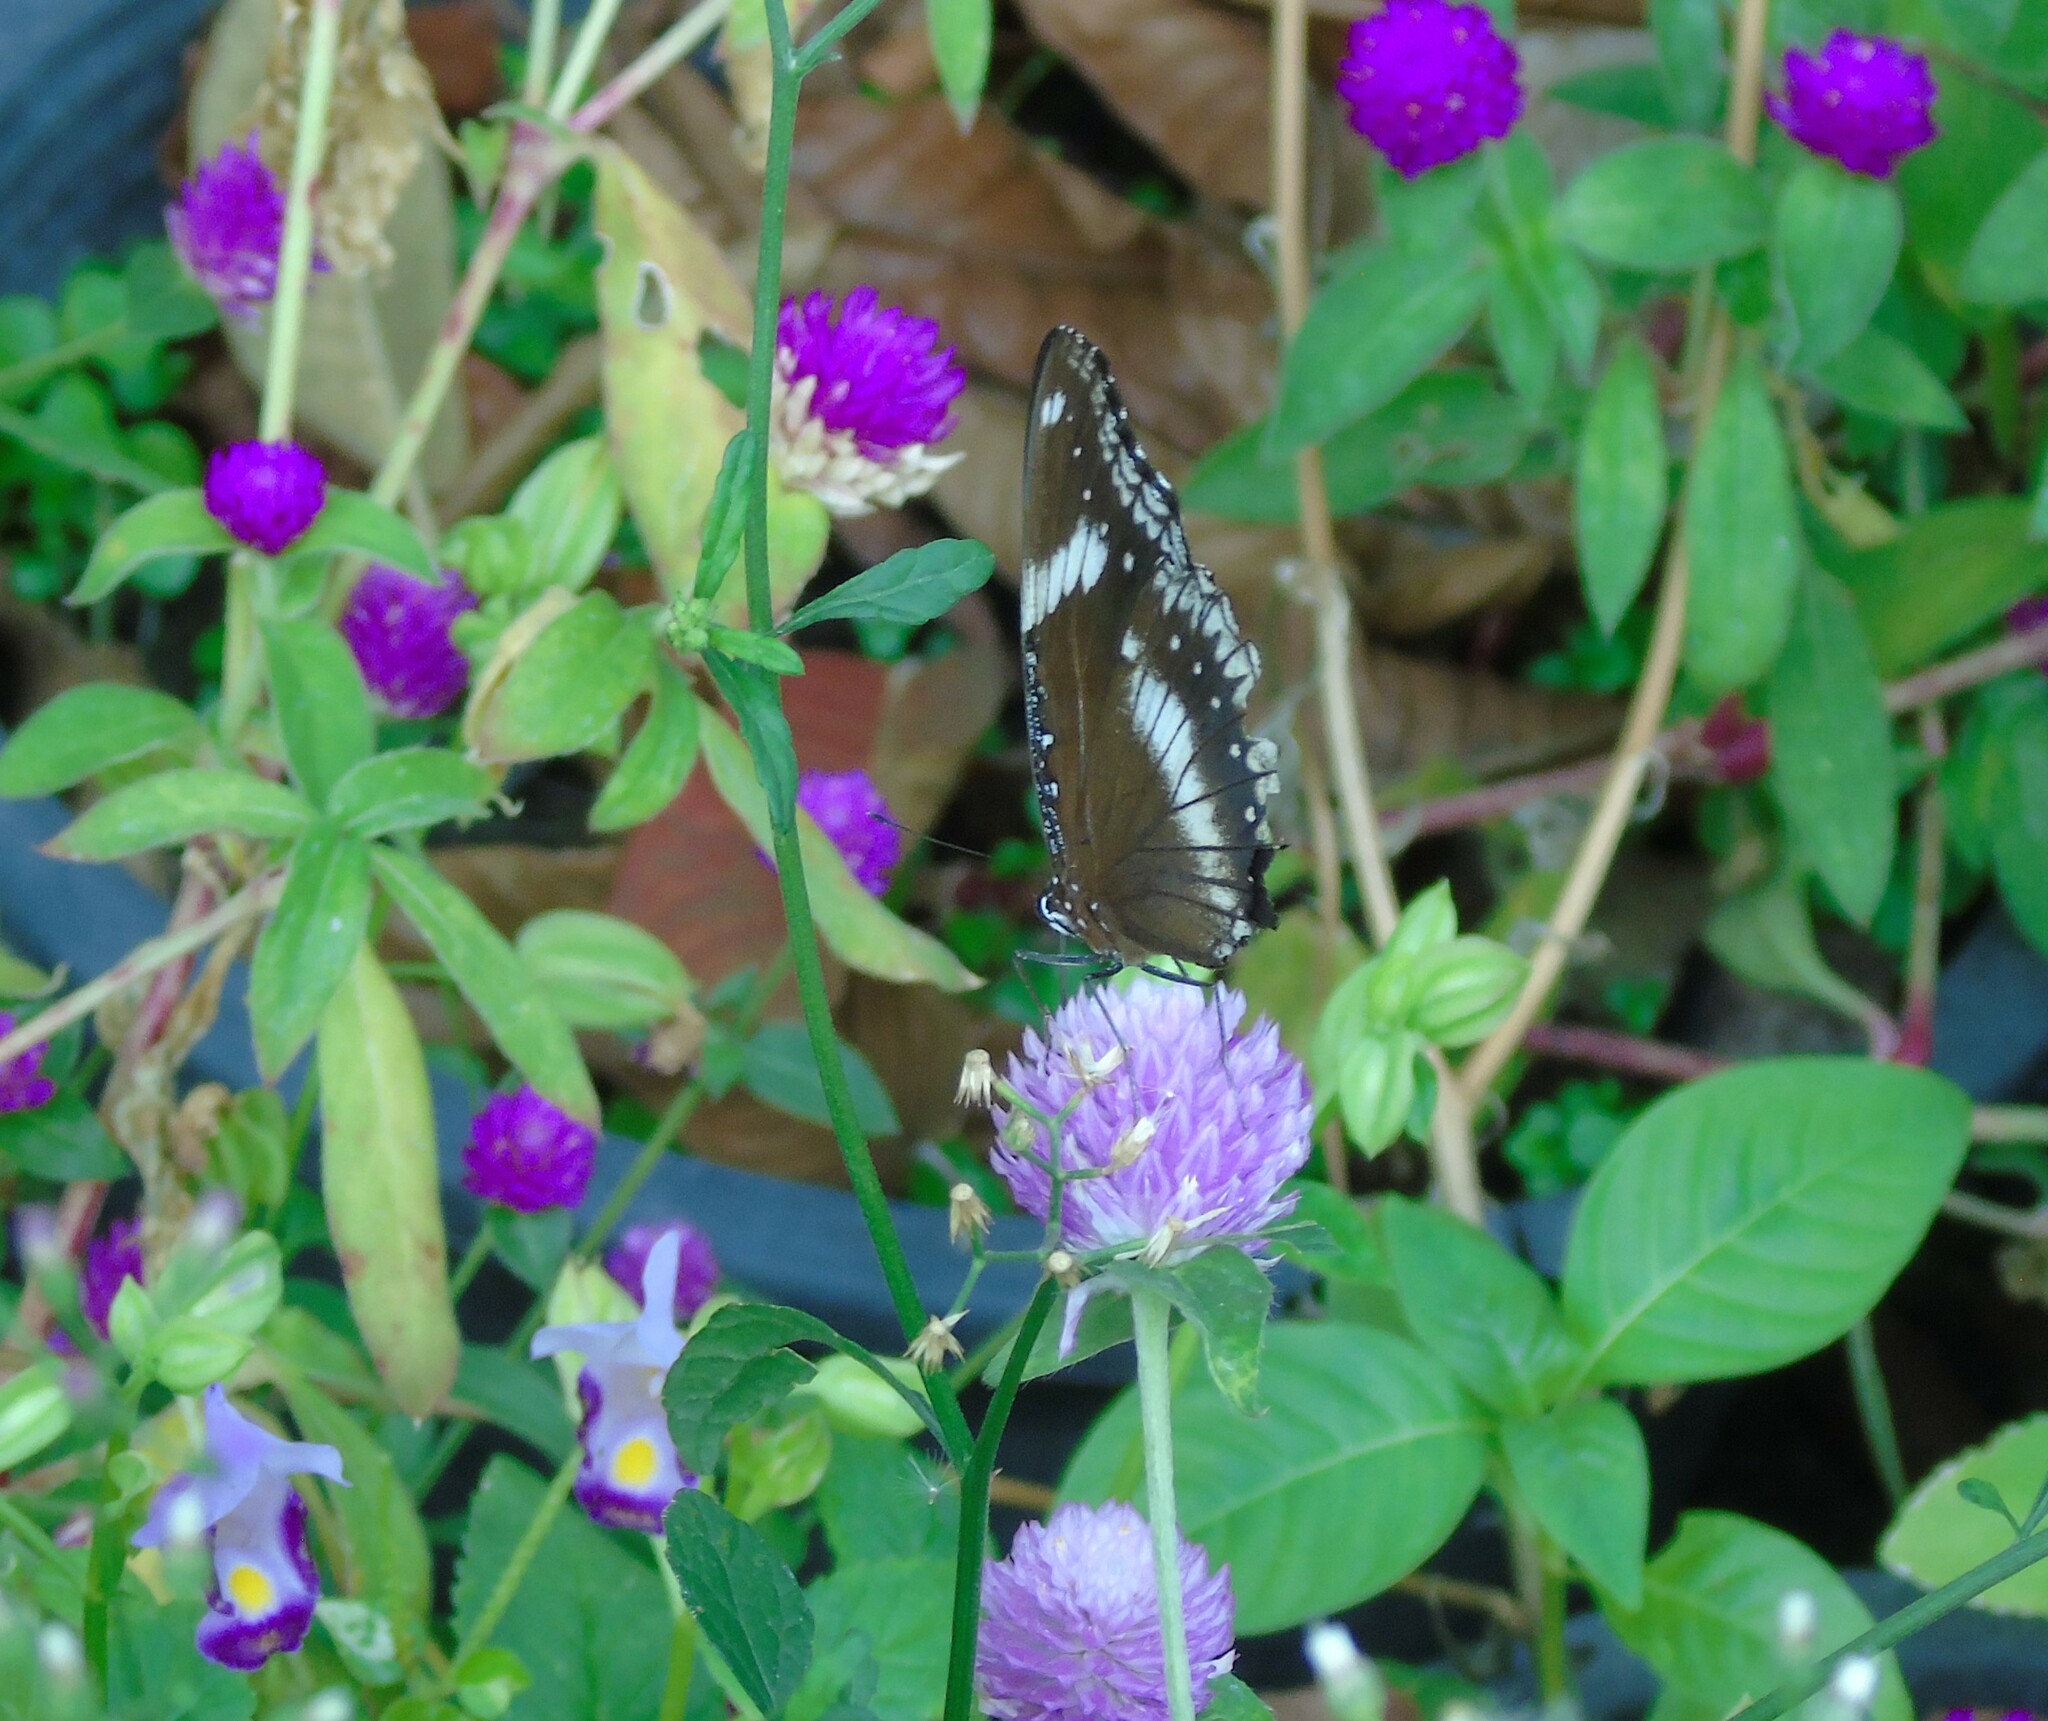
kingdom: Animalia
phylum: Arthropoda
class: Insecta
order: Lepidoptera
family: Nymphalidae
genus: Hypolimnas
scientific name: Hypolimnas bolina
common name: Great eggfly
